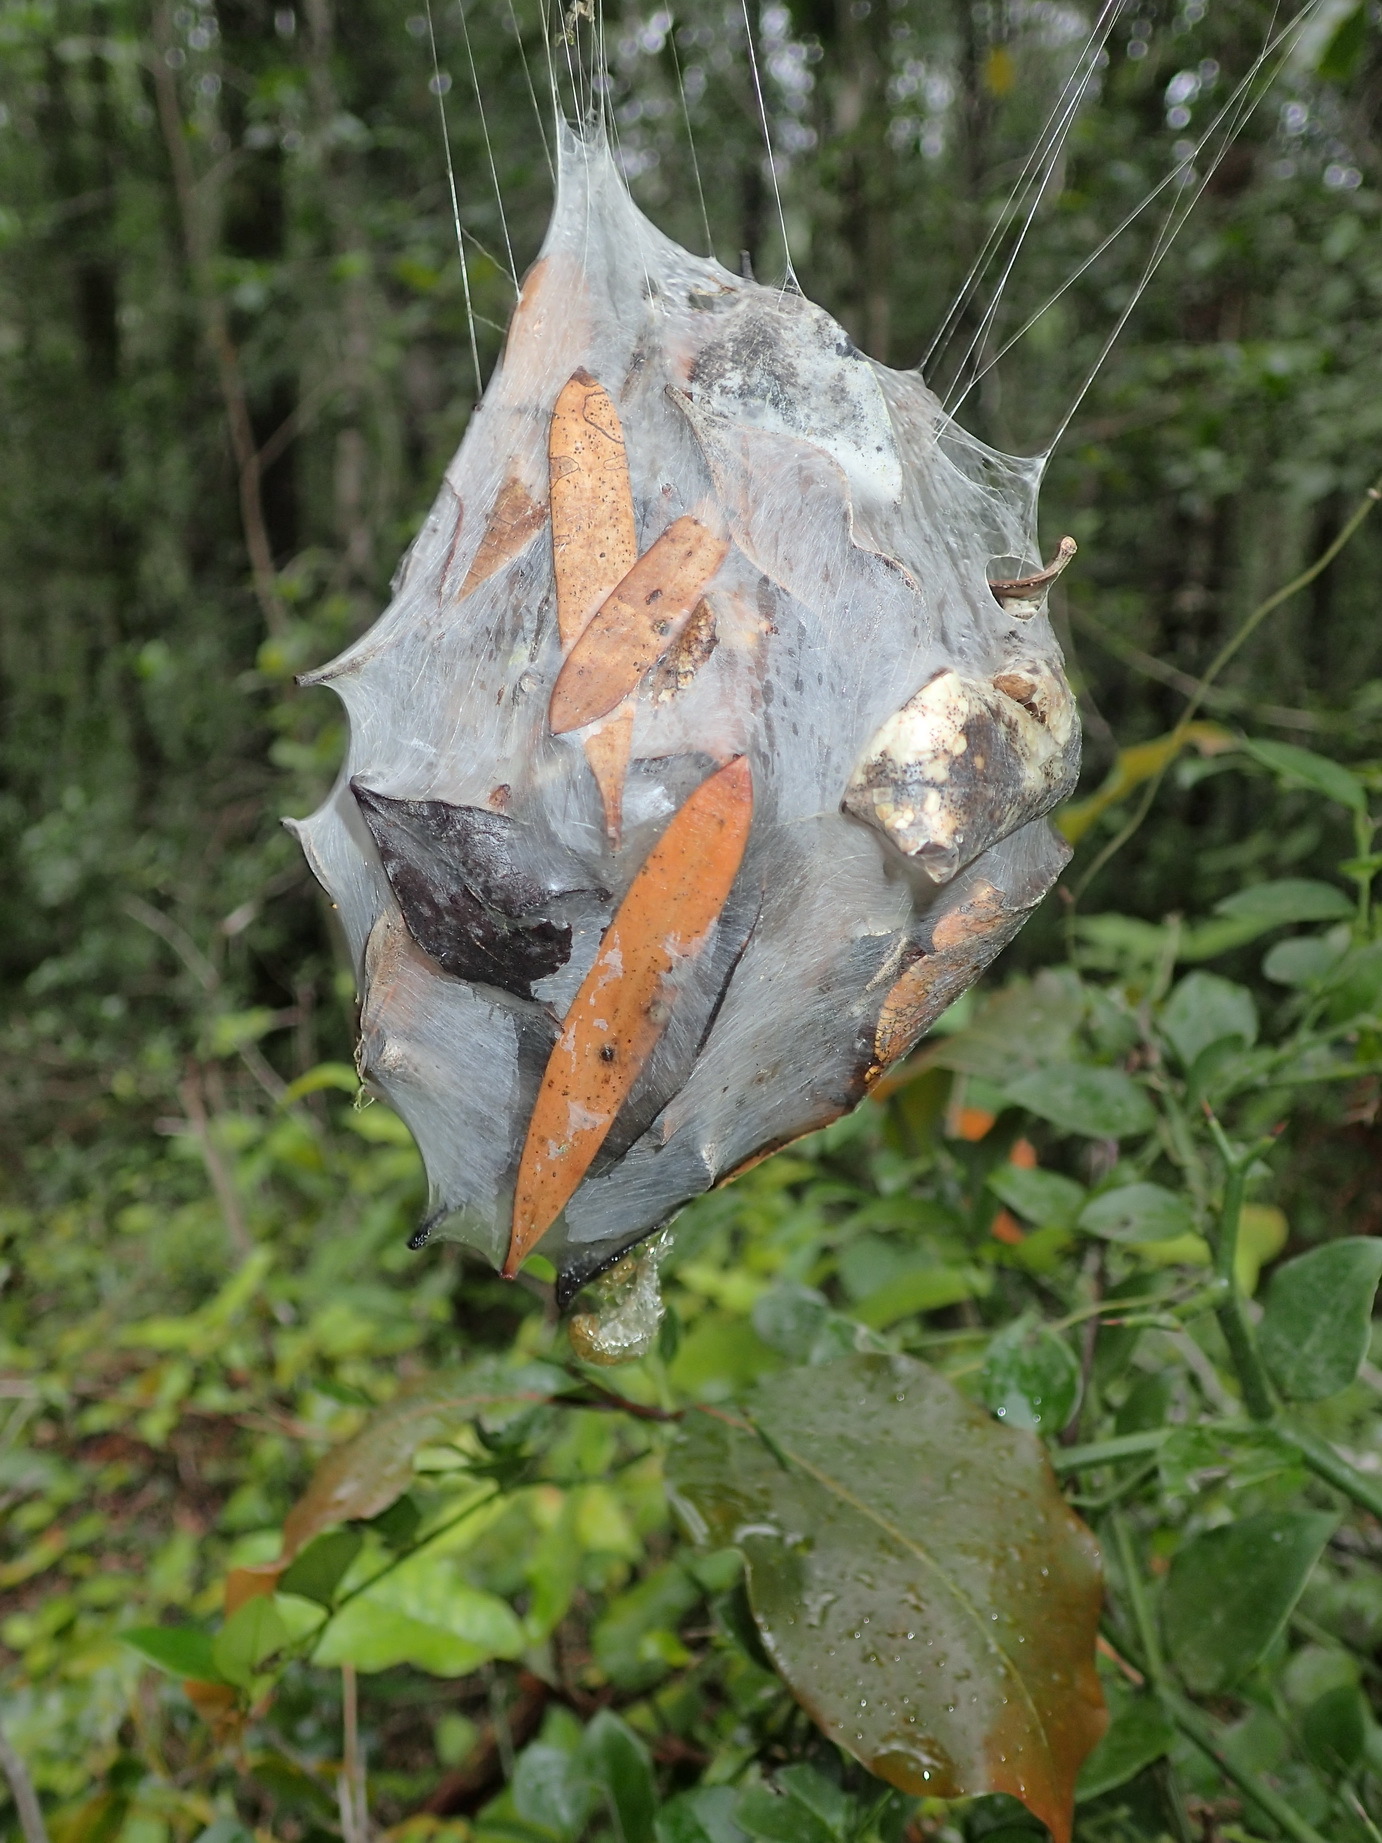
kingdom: Animalia
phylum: Arthropoda
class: Arachnida
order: Araneae
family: Sparassidae
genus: Palystes
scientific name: Palystes castaneus
